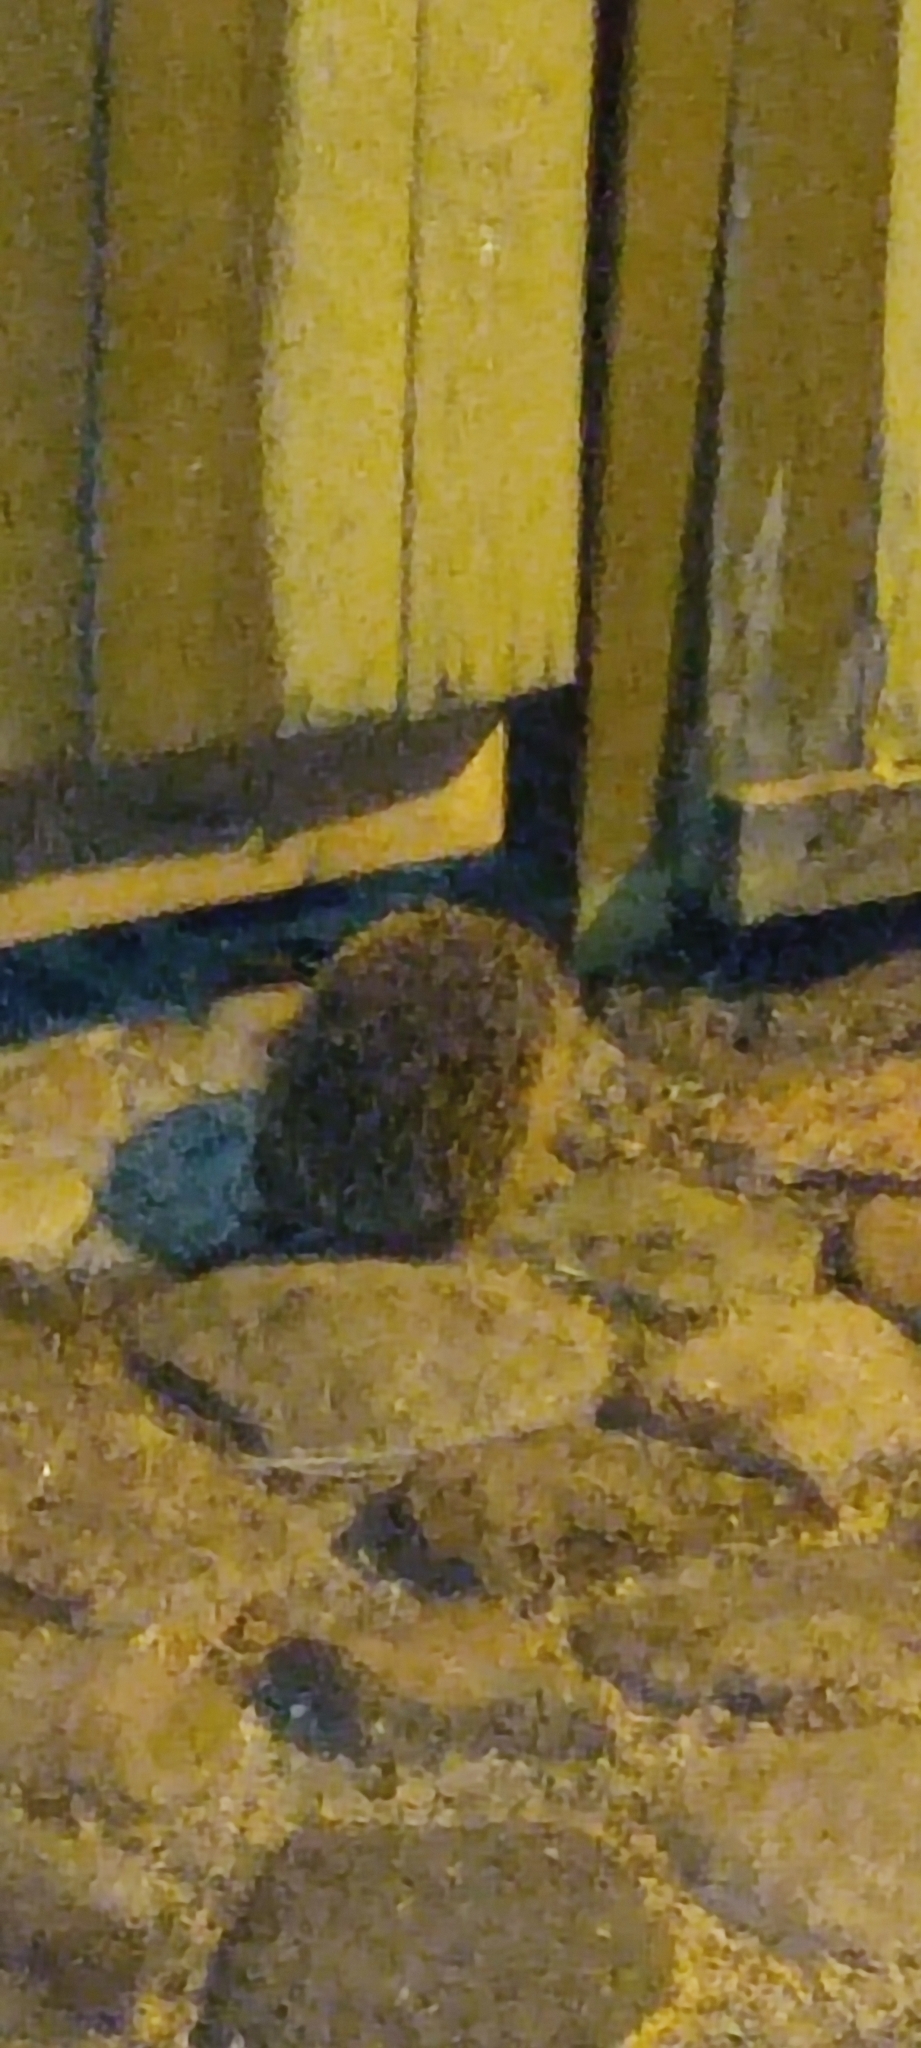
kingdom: Animalia
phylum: Chordata
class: Mammalia
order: Erinaceomorpha
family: Erinaceidae
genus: Erinaceus
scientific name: Erinaceus europaeus
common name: West european hedgehog
